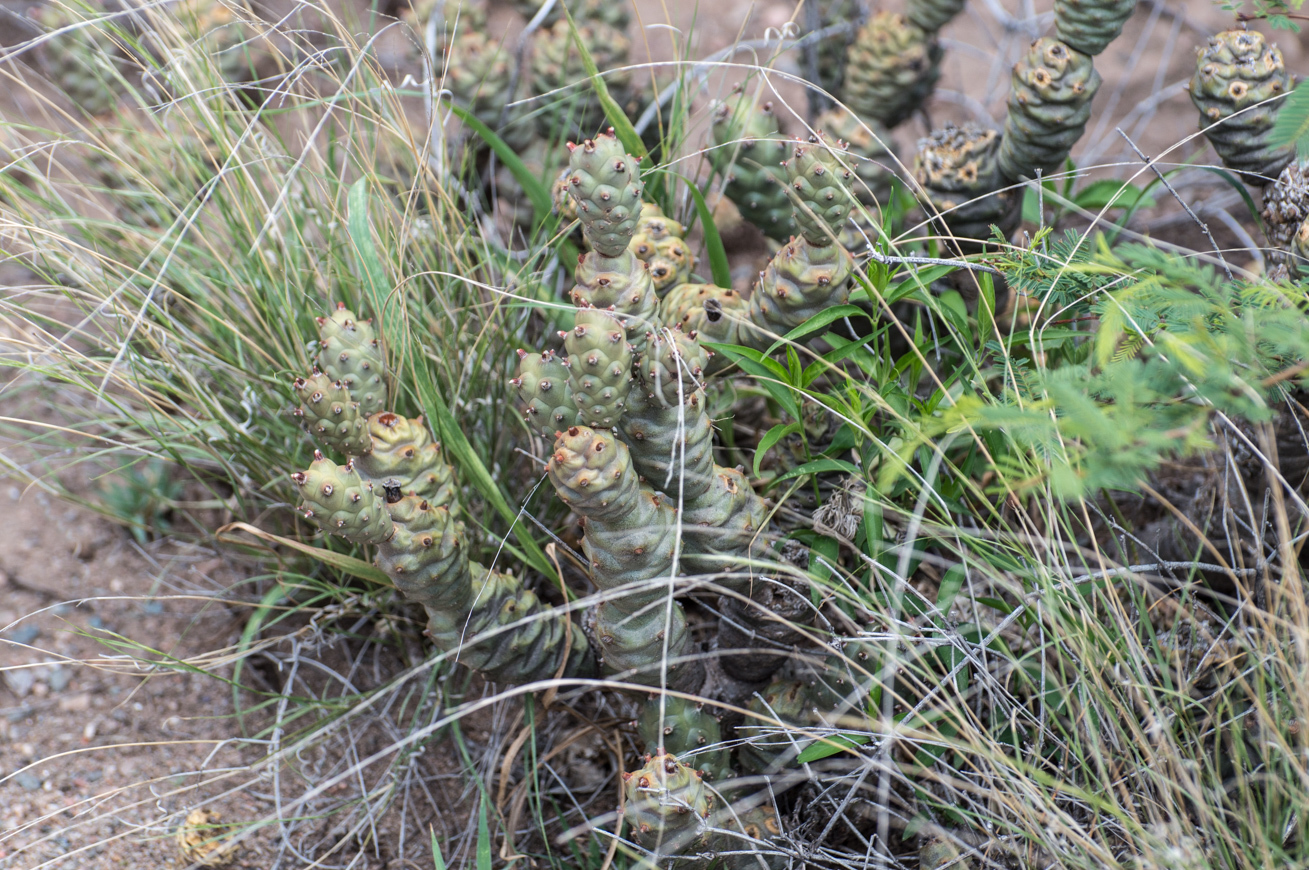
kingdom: Plantae
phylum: Tracheophyta
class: Magnoliopsida
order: Caryophyllales
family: Cactaceae
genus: Tephrocactus
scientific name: Tephrocactus articulatus
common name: Paper cactus
